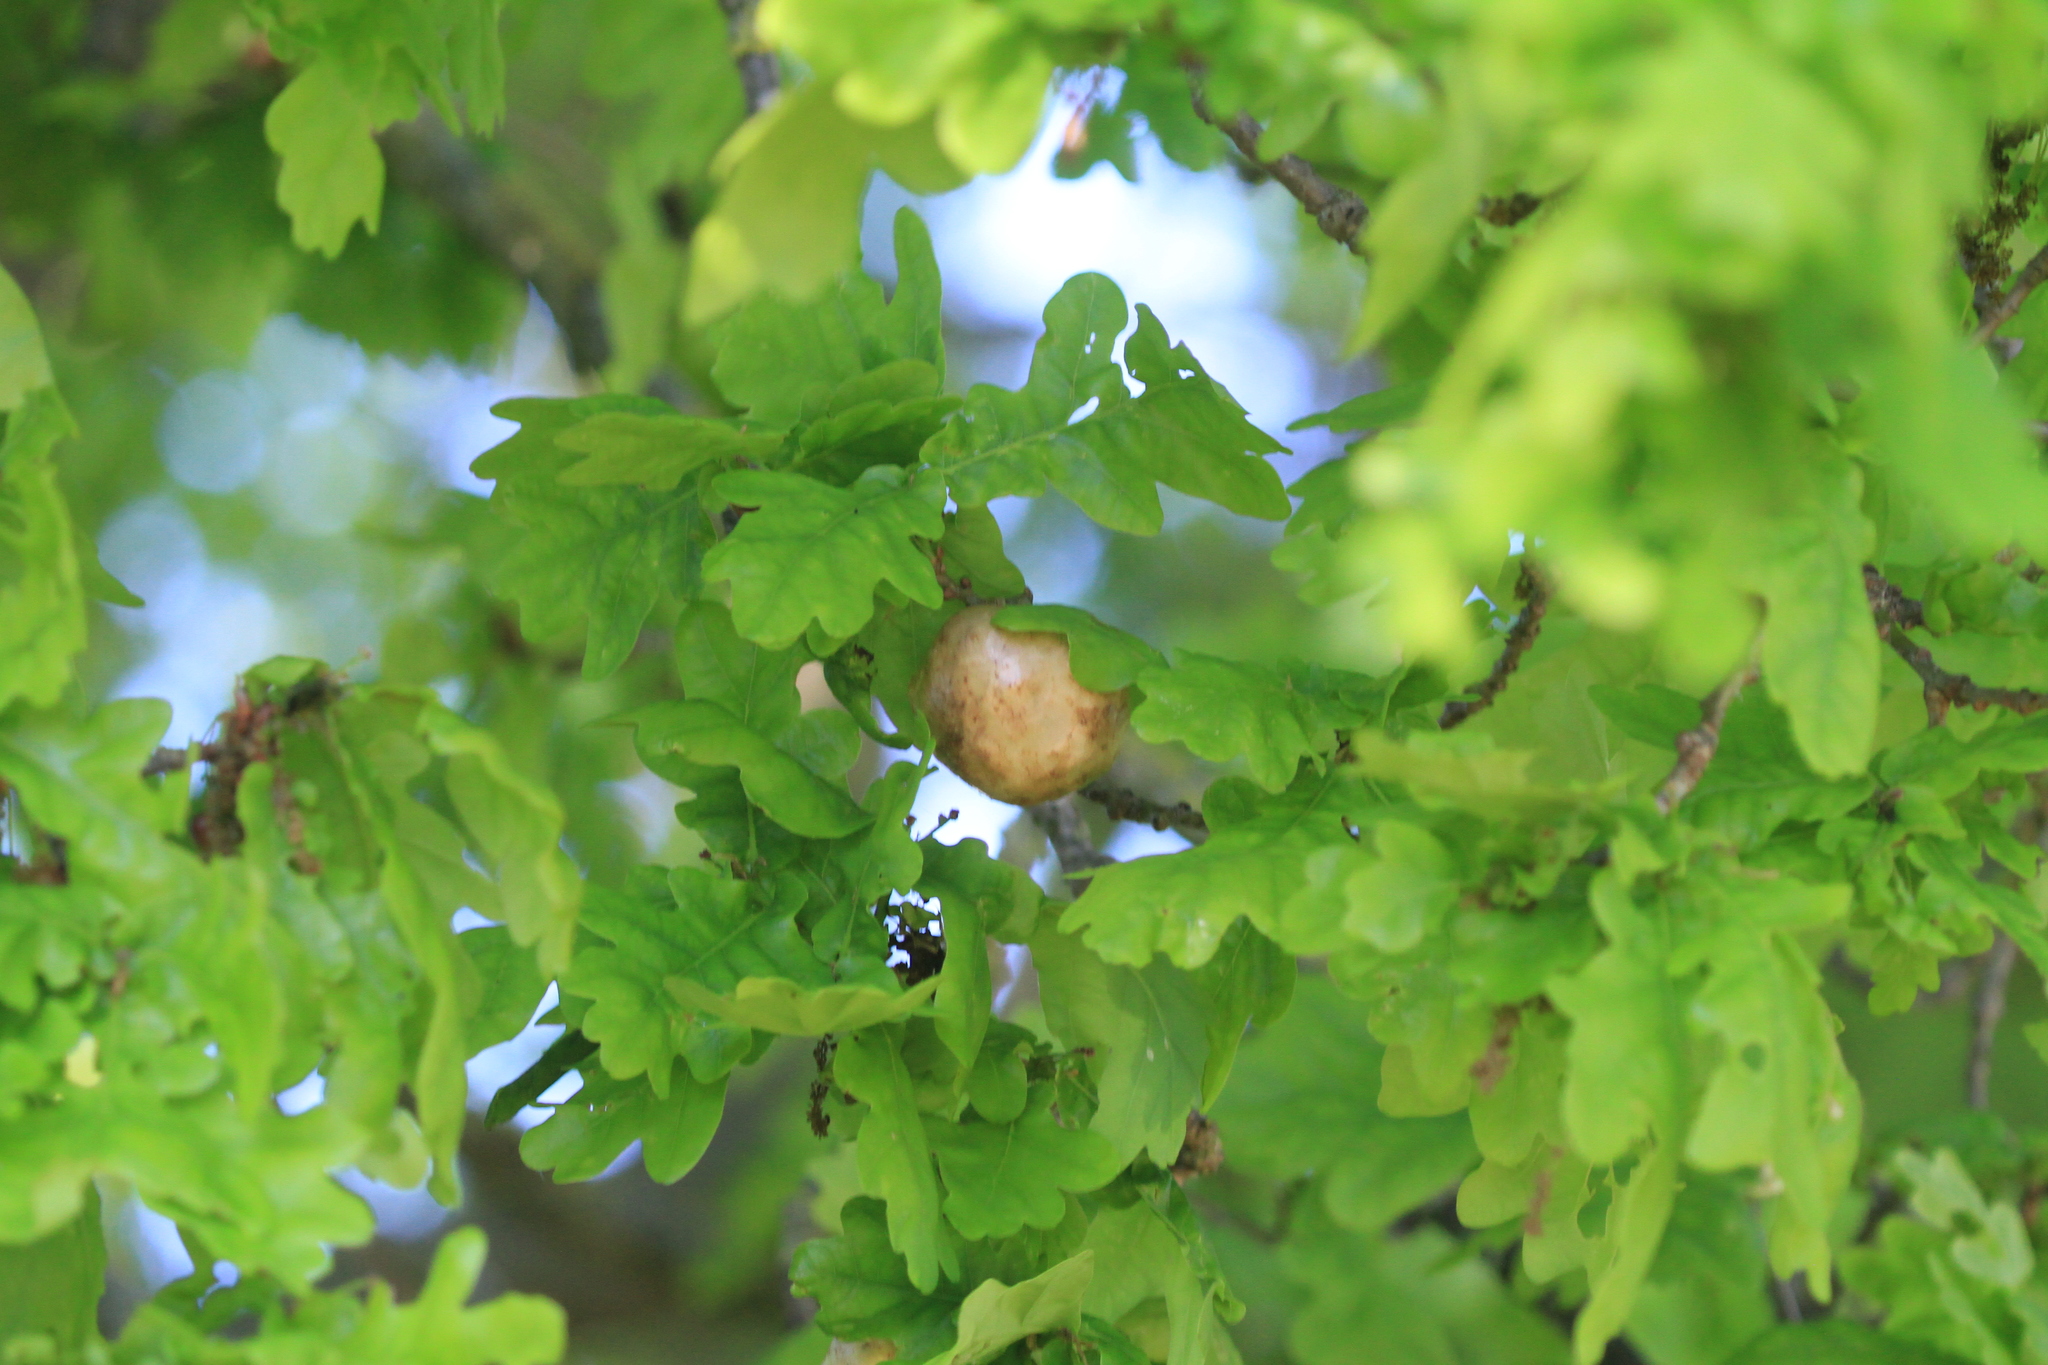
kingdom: Animalia
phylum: Arthropoda
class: Insecta
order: Hymenoptera
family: Cynipidae
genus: Biorhiza
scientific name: Biorhiza pallida
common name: Oak apple
